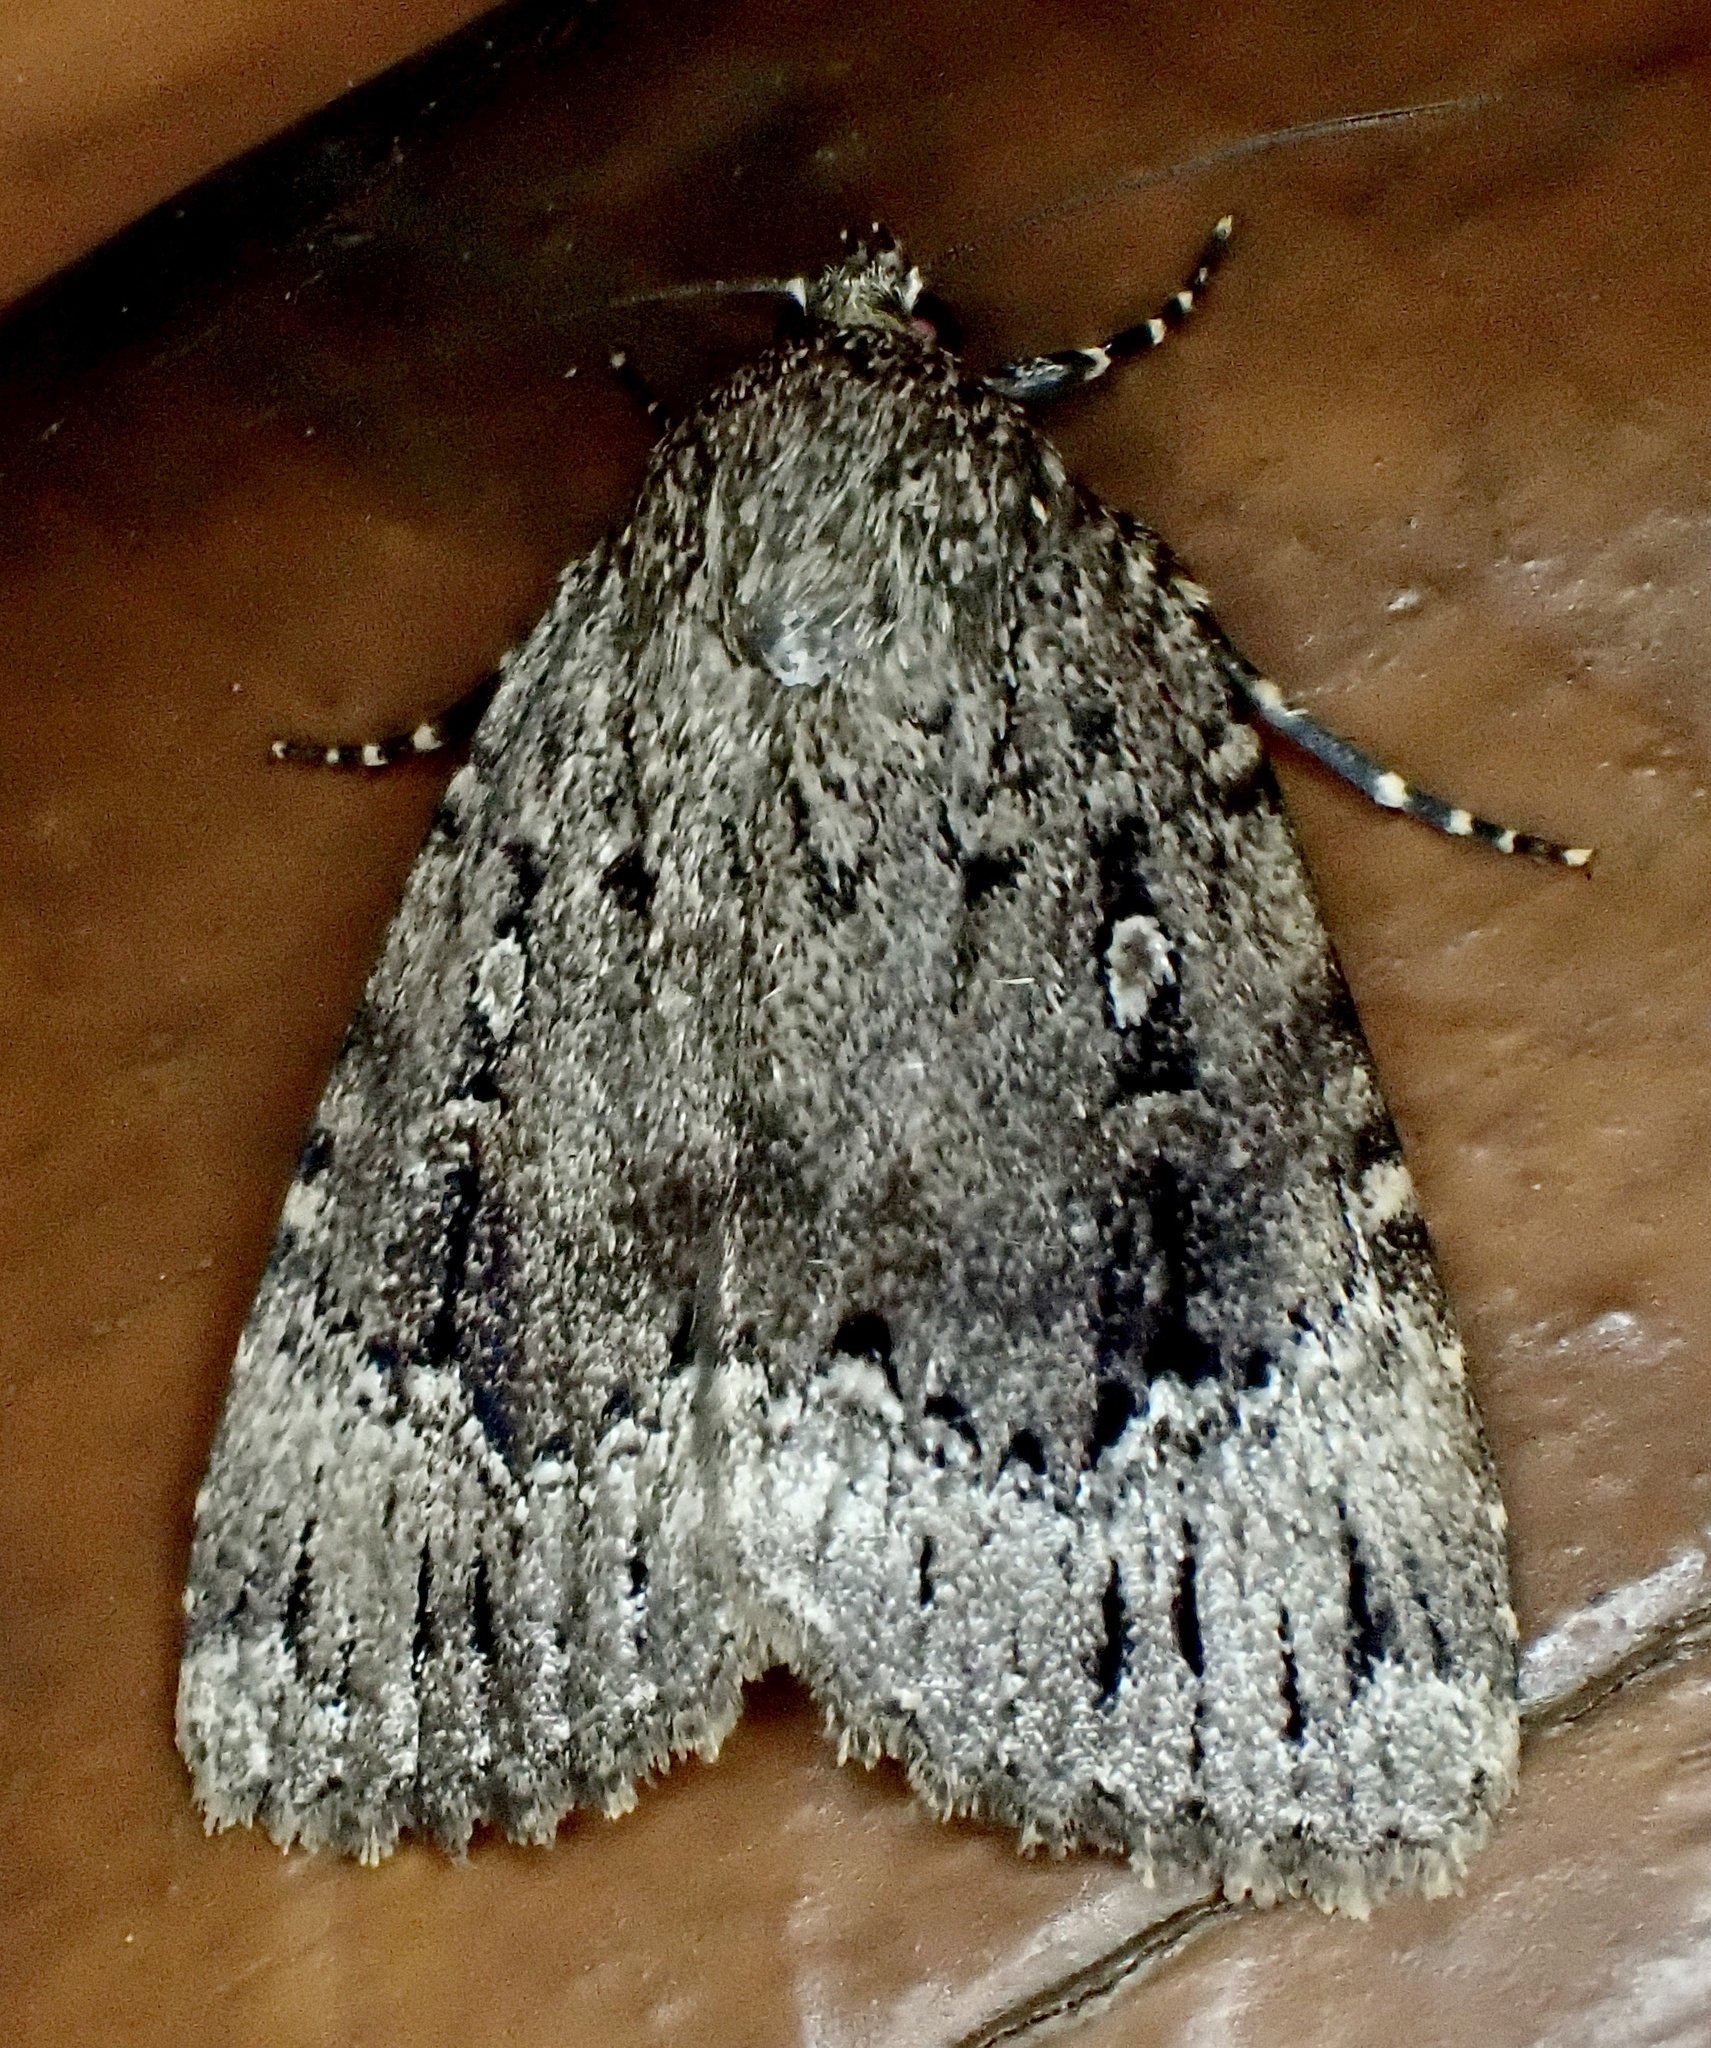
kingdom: Animalia
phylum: Arthropoda
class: Insecta
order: Lepidoptera
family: Noctuidae
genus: Amphipyra
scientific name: Amphipyra pyramidoides
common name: American copper underwing
